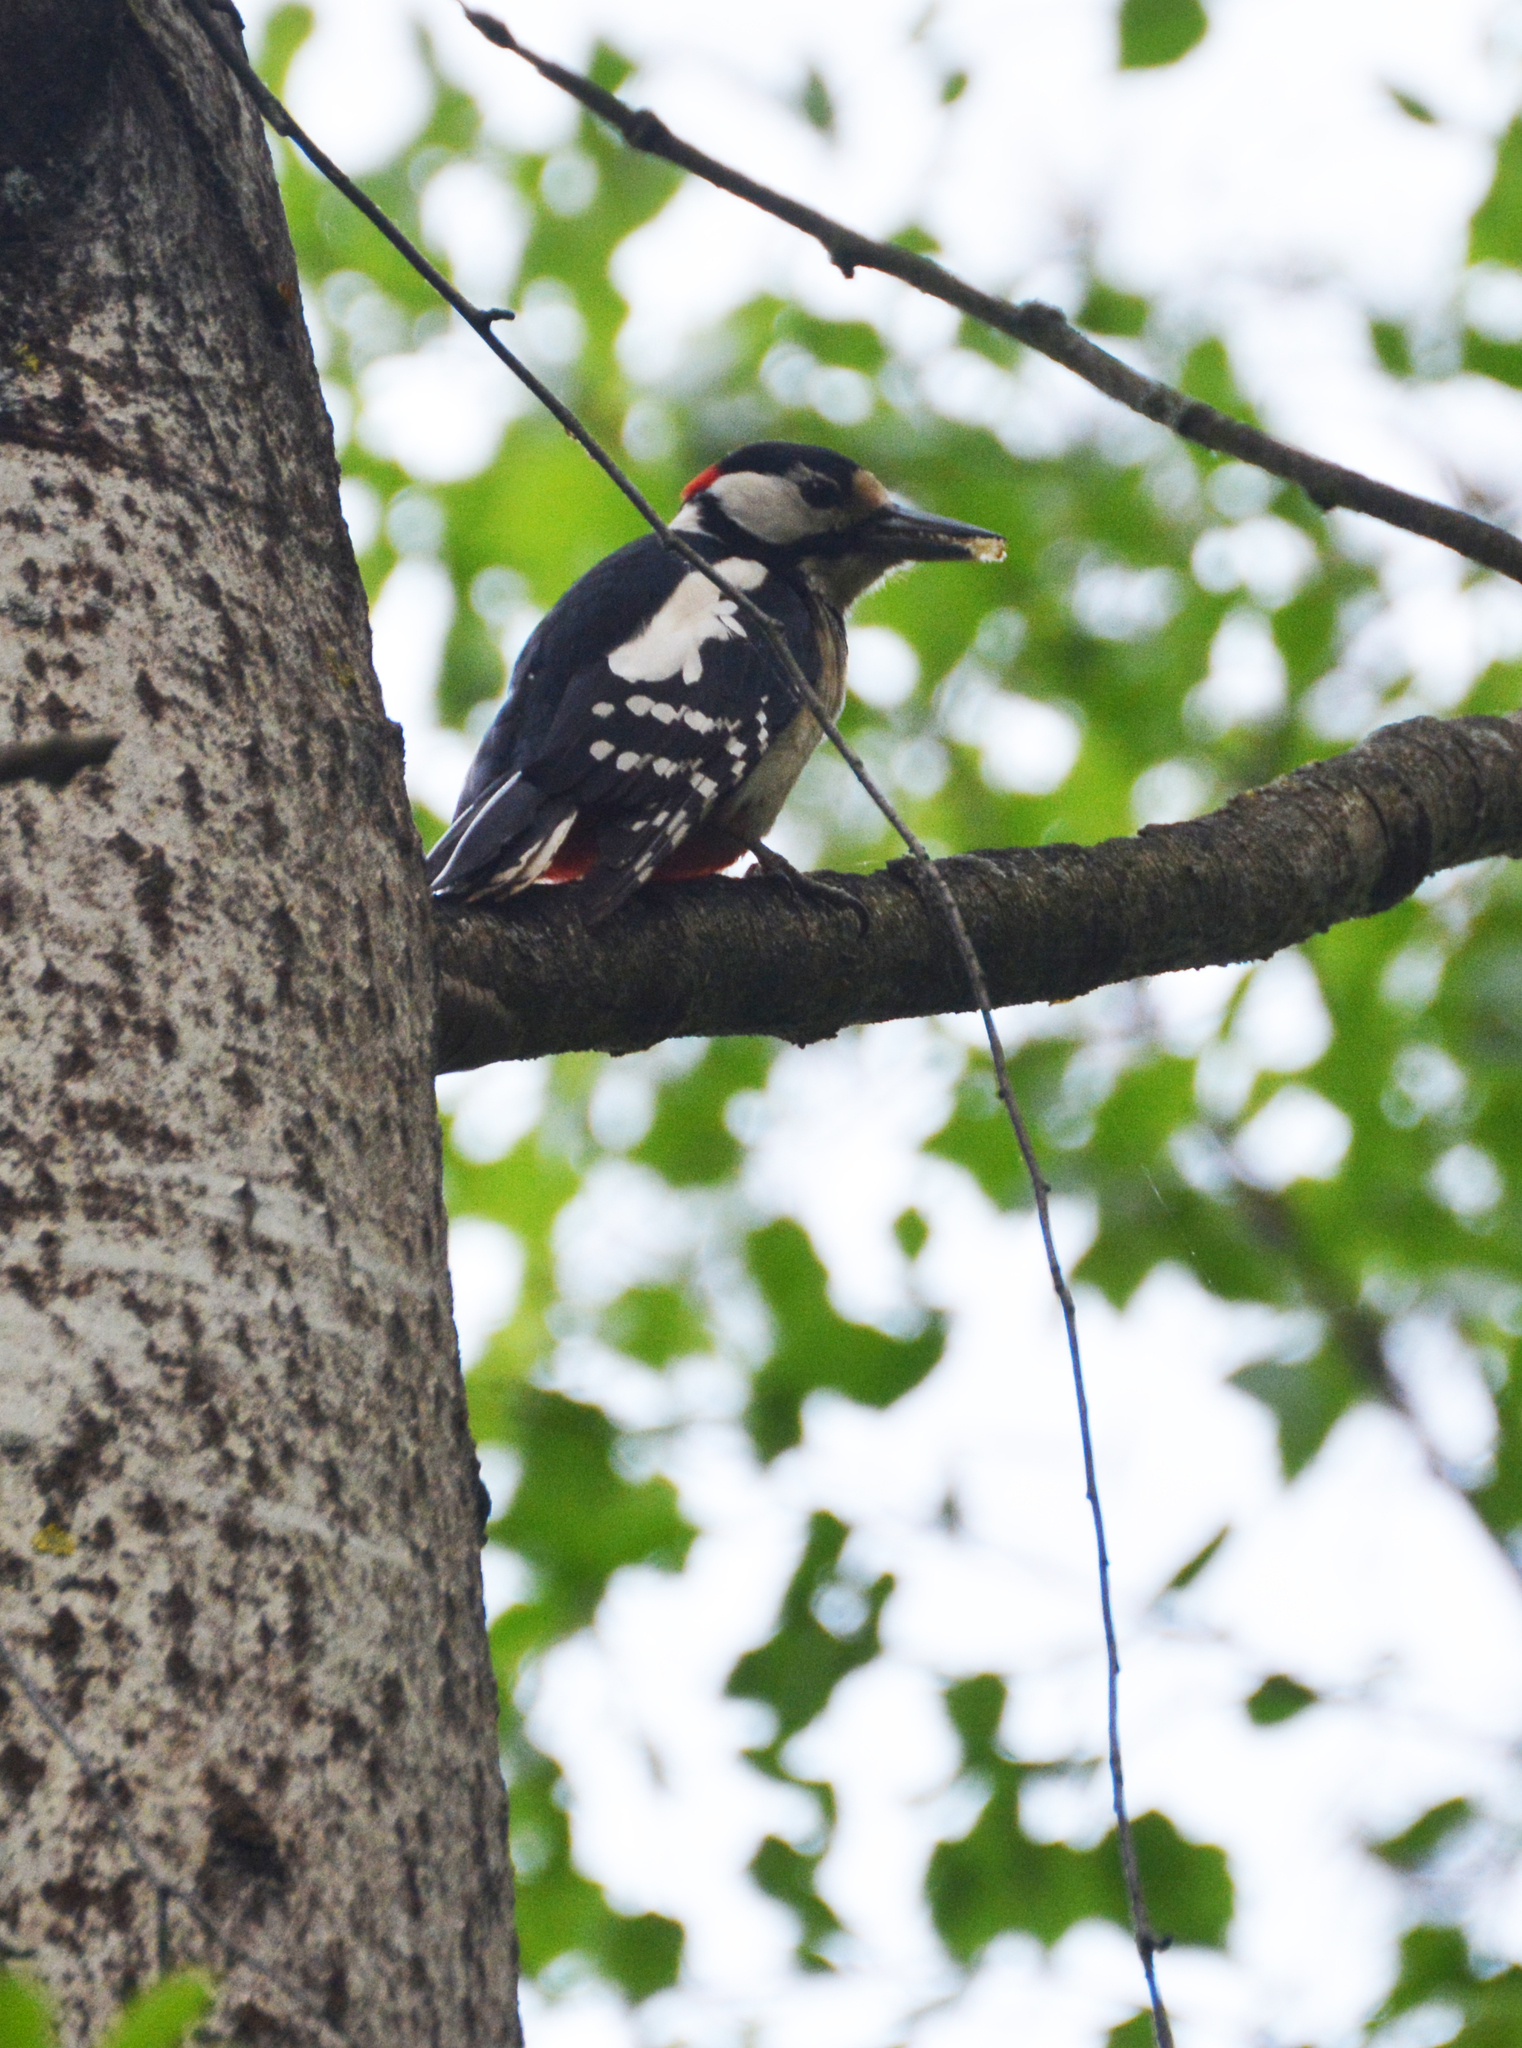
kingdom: Animalia
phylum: Chordata
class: Aves
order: Piciformes
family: Picidae
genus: Dendrocopos
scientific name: Dendrocopos major
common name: Great spotted woodpecker
